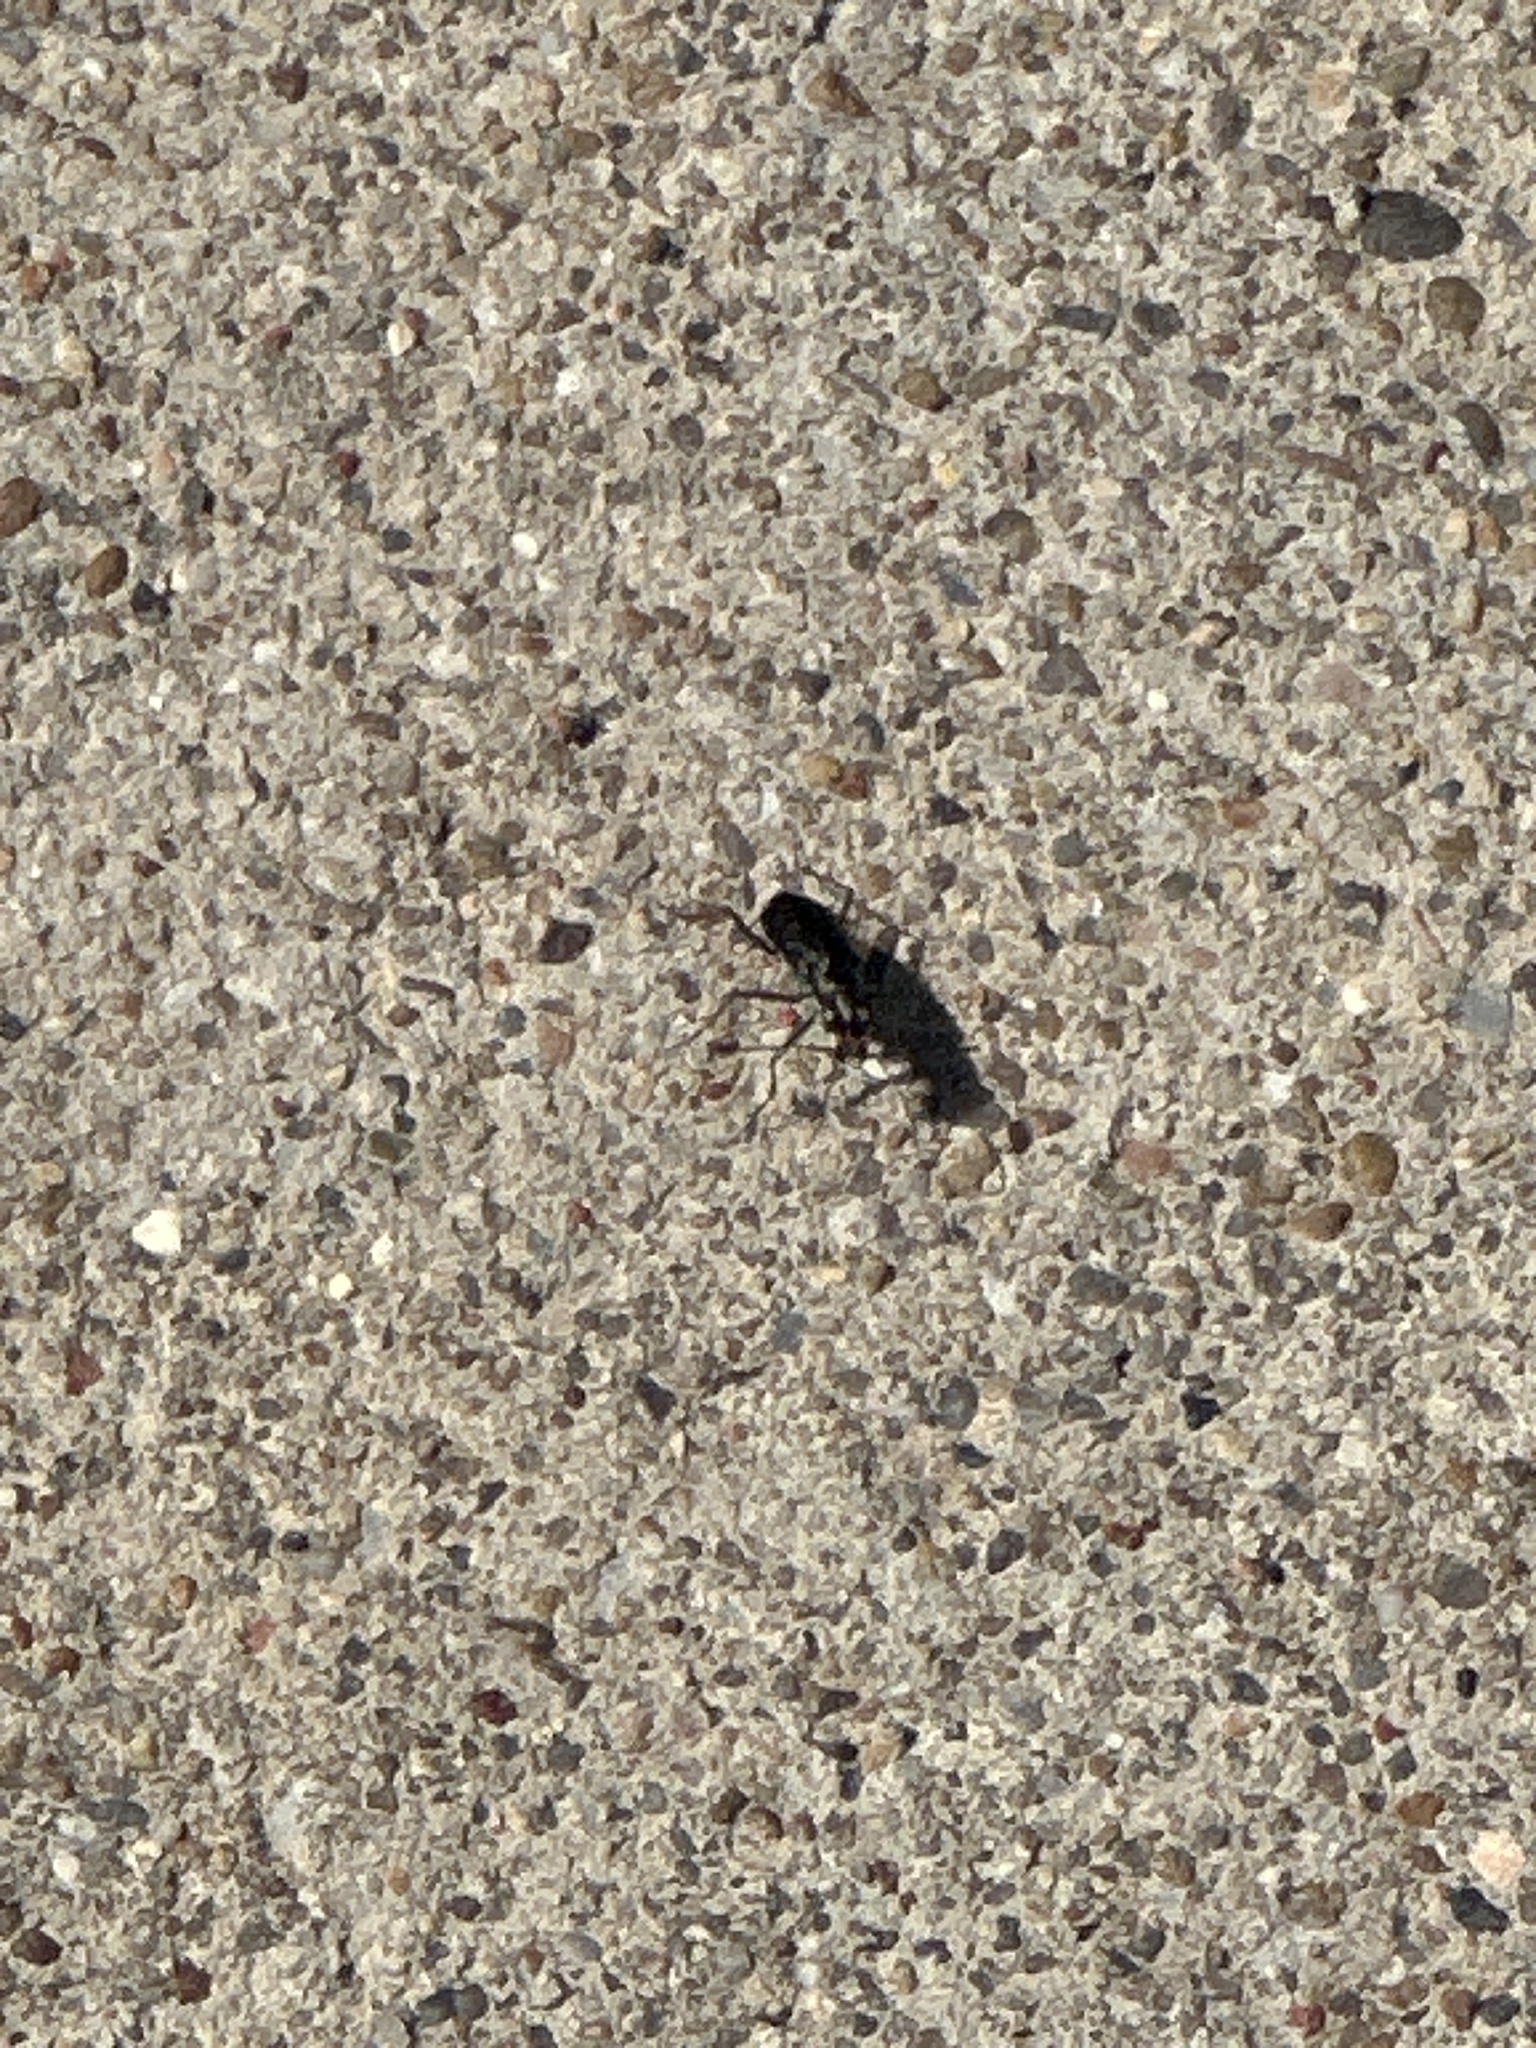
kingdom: Animalia
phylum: Arthropoda
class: Insecta
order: Coleoptera
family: Carabidae
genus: Cicindela
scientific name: Cicindela punctulata
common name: Punctured tiger beetle
